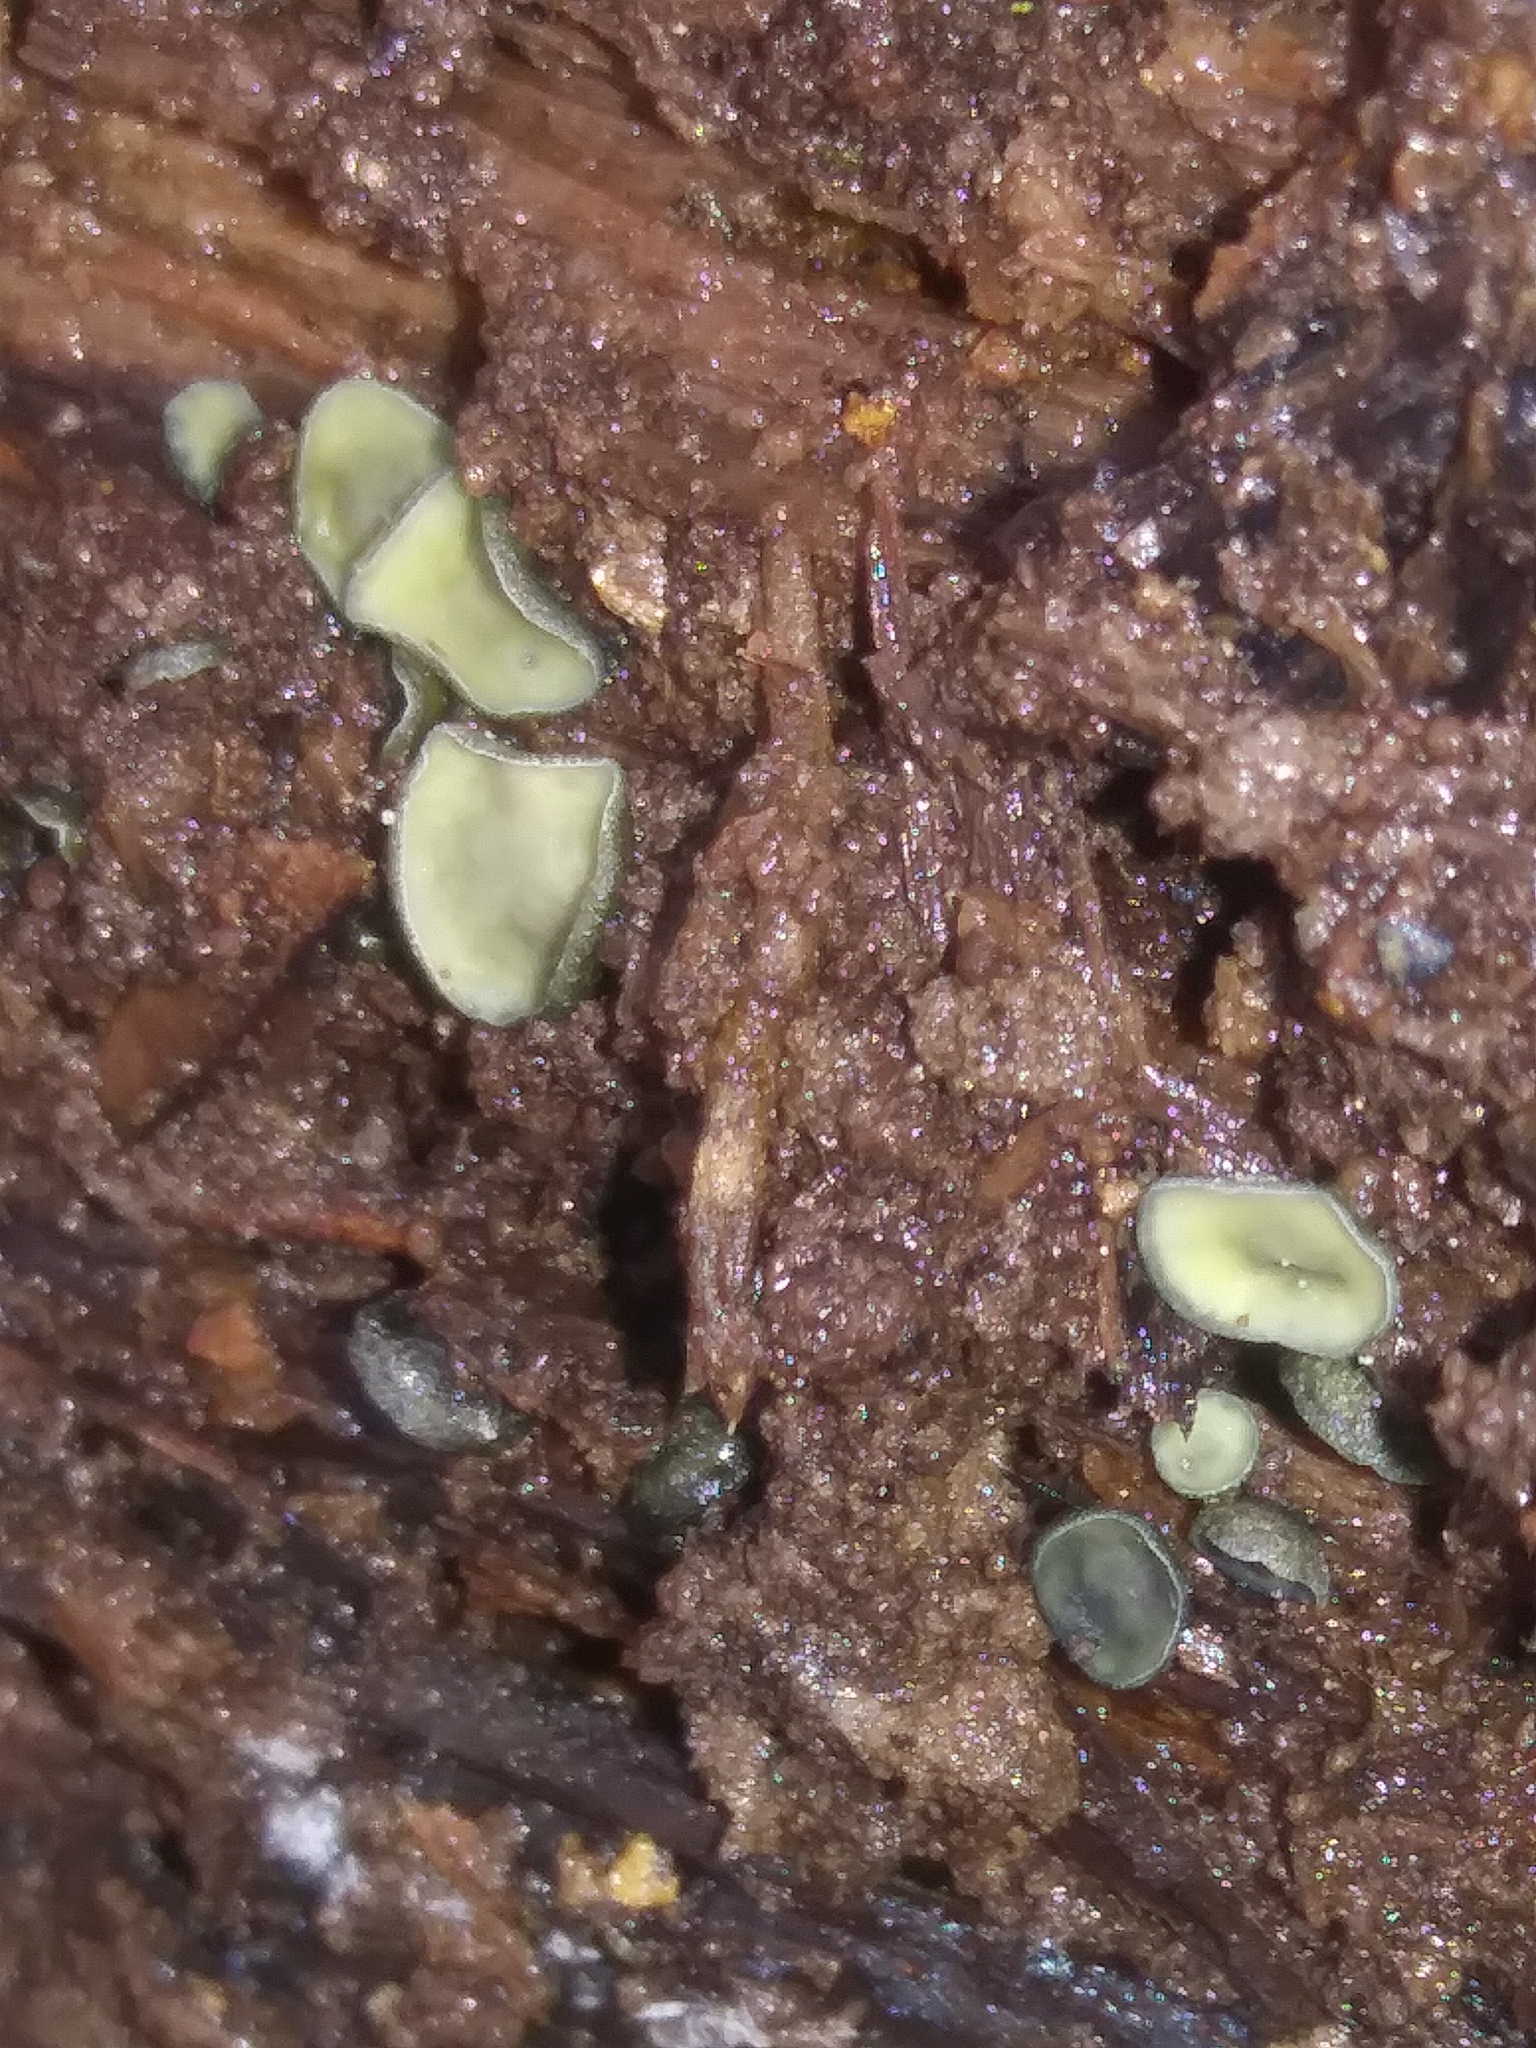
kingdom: Fungi
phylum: Ascomycota
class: Leotiomycetes
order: Helotiales
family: Chlorospleniaceae
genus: Chlorosplenium
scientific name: Chlorosplenium chlora
